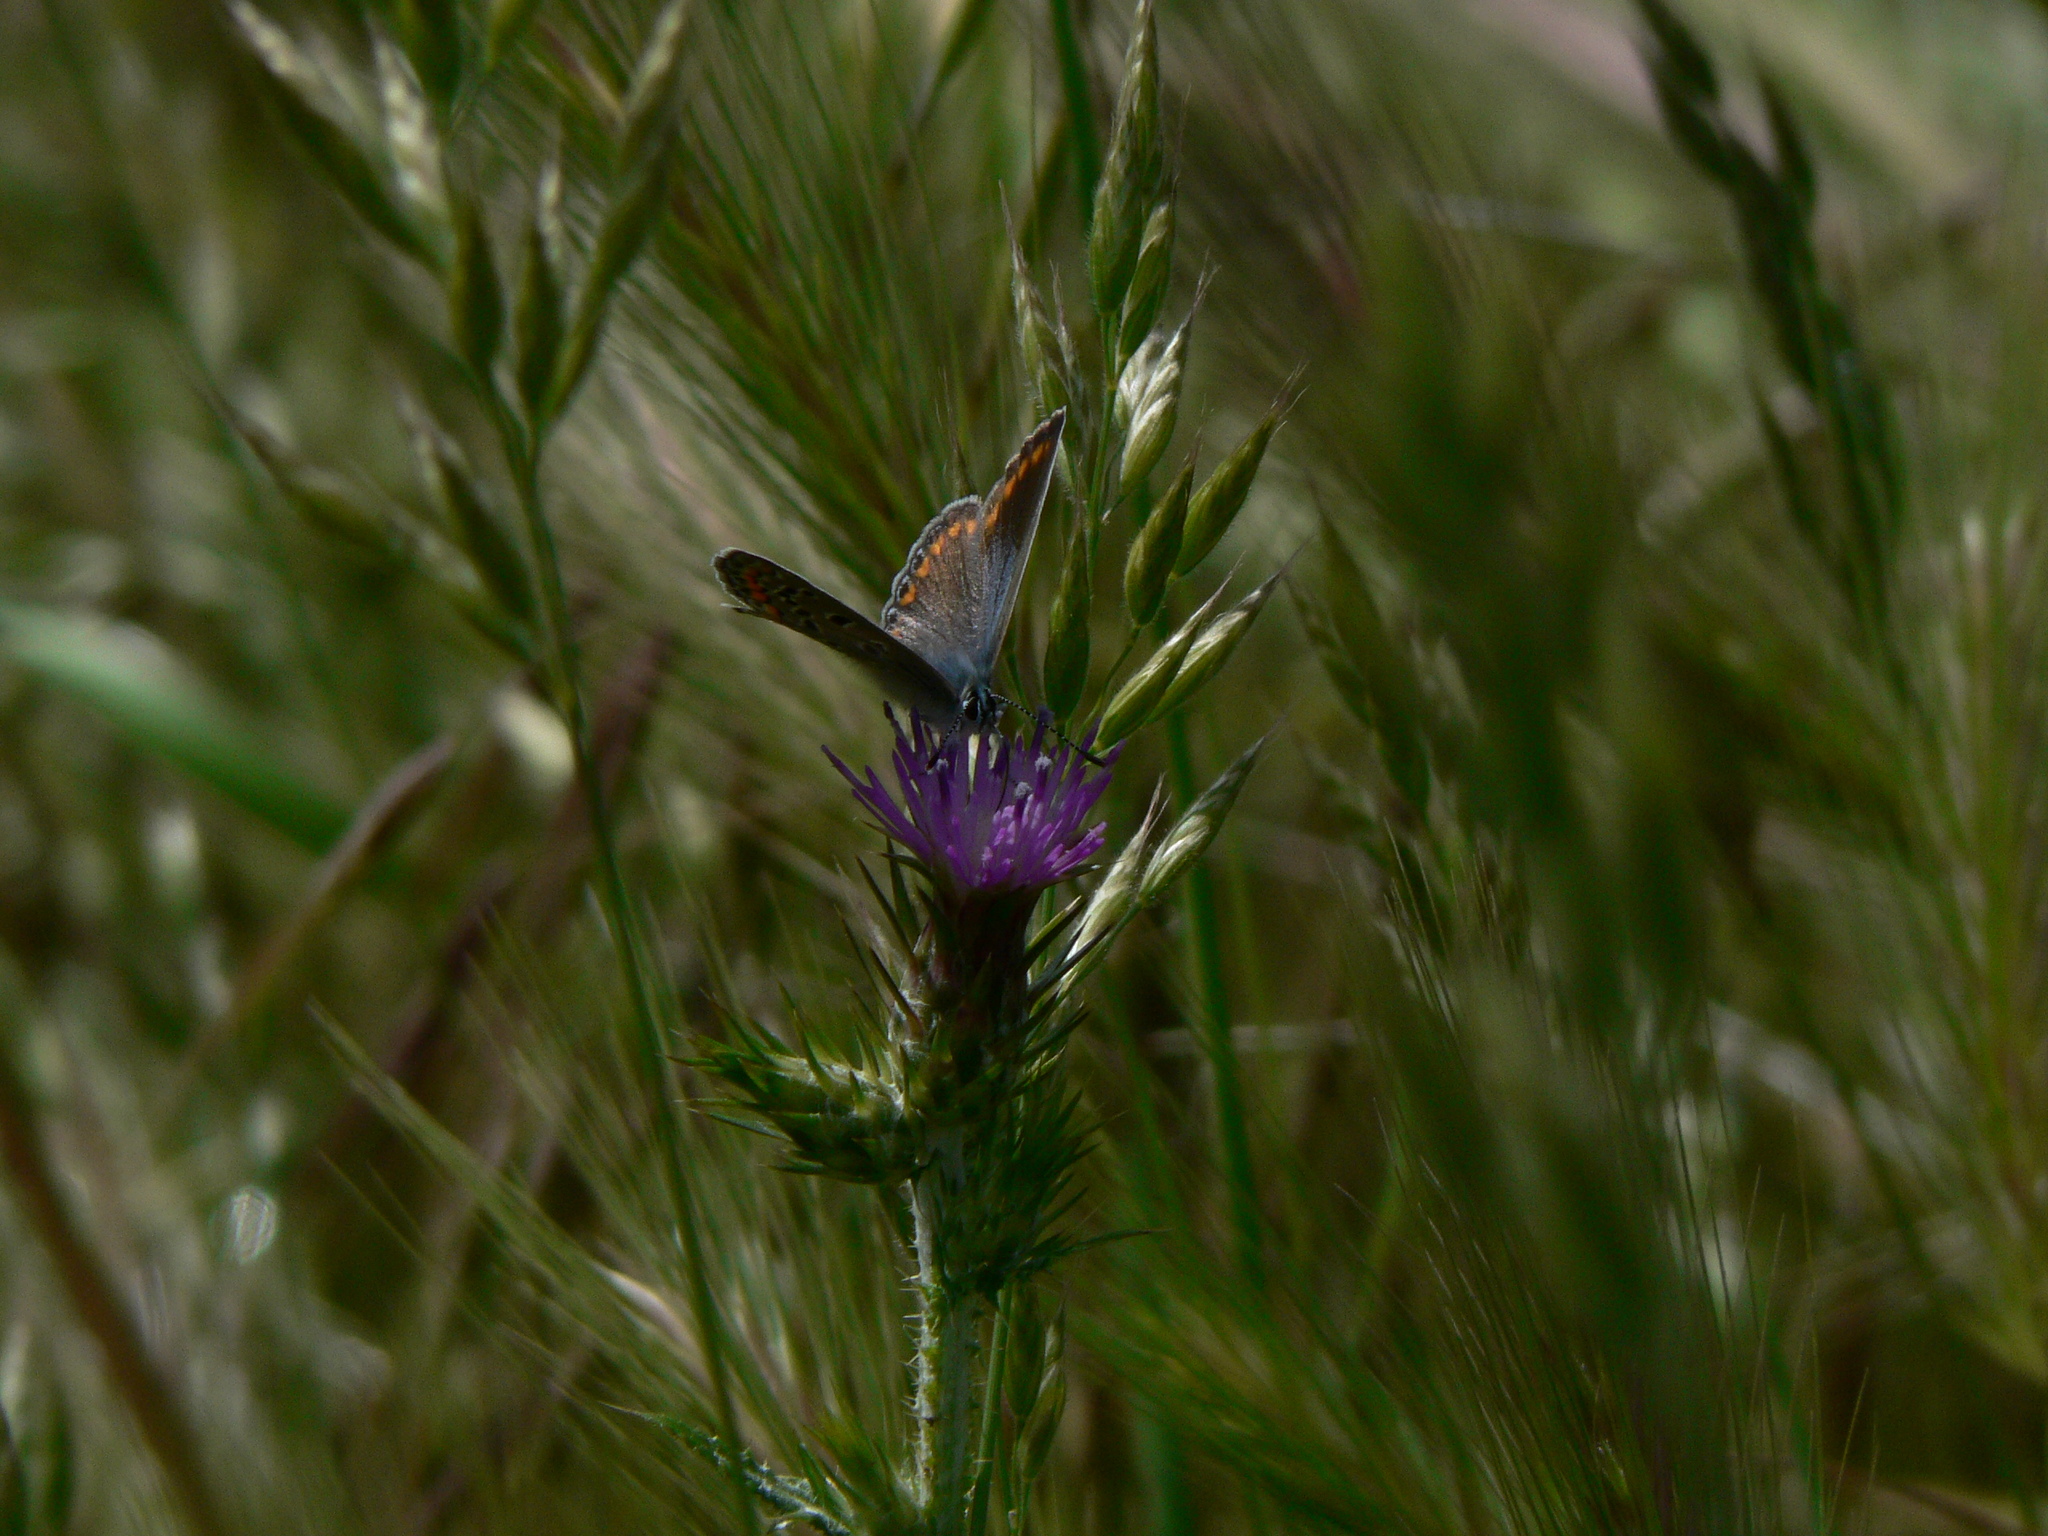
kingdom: Animalia
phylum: Arthropoda
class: Insecta
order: Lepidoptera
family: Lycaenidae
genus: Polyommatus
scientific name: Polyommatus icarus
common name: Common blue
